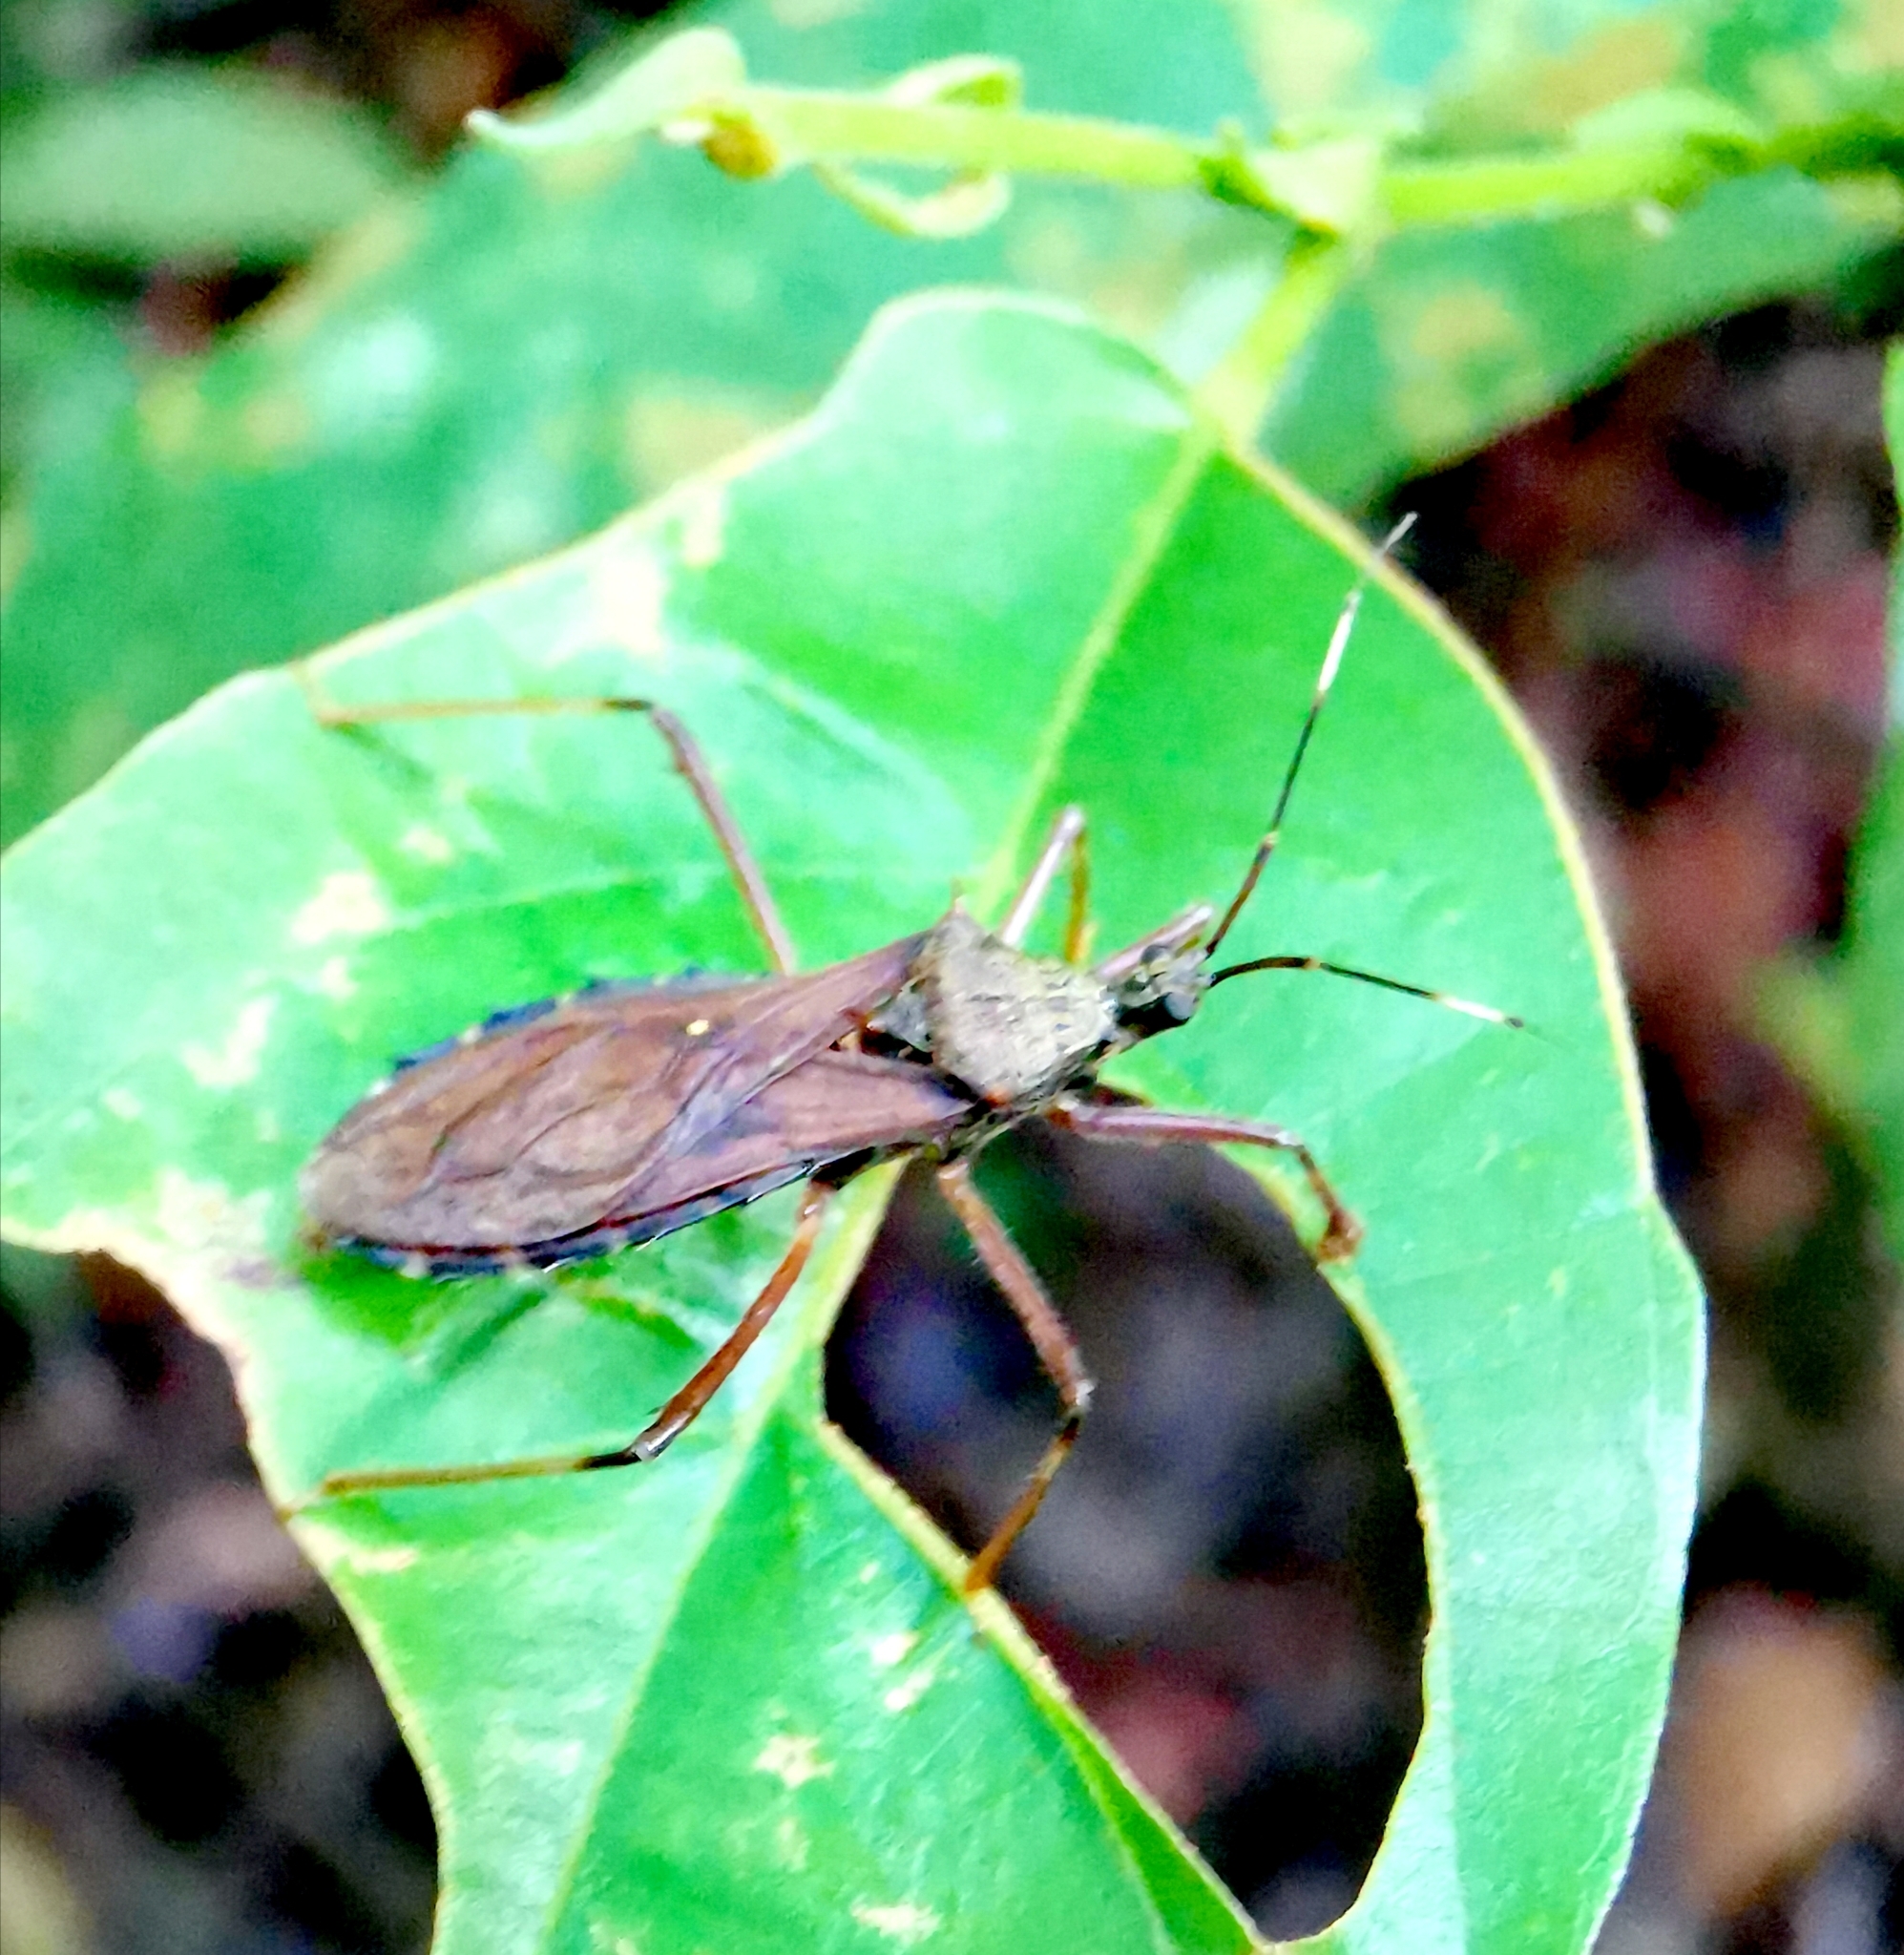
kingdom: Animalia
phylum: Arthropoda
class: Insecta
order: Hemiptera
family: Reduviidae
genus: Valentia
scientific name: Valentia apetala
